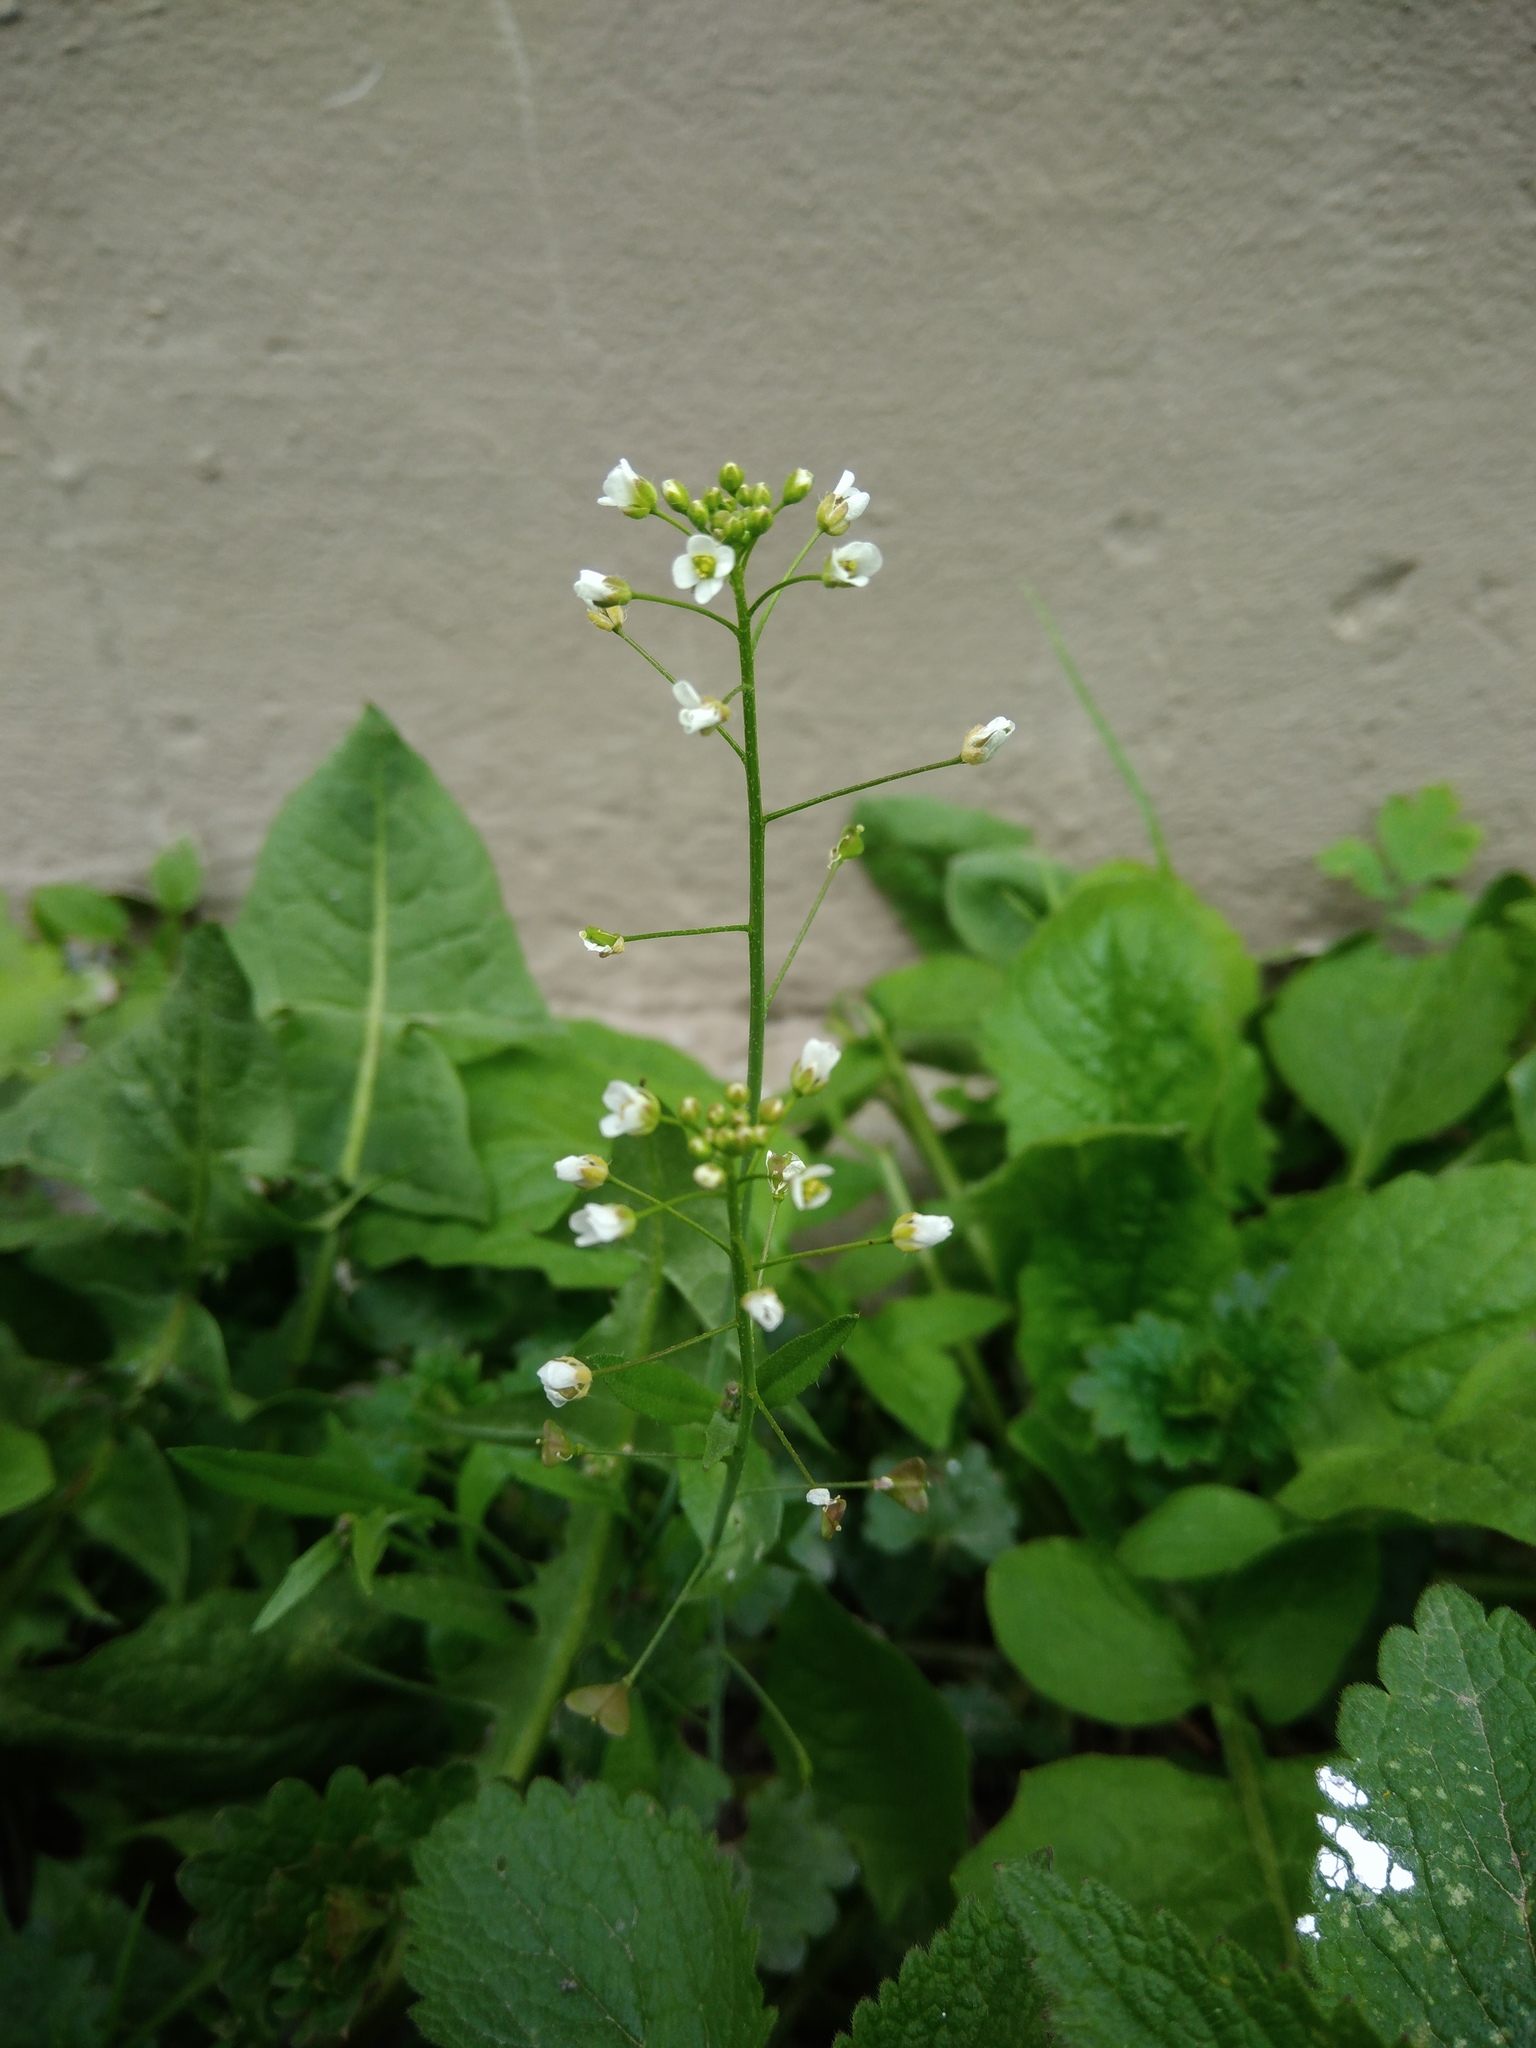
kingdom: Plantae
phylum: Tracheophyta
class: Magnoliopsida
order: Brassicales
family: Brassicaceae
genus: Capsella
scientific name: Capsella bursa-pastoris
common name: Shepherd's purse
